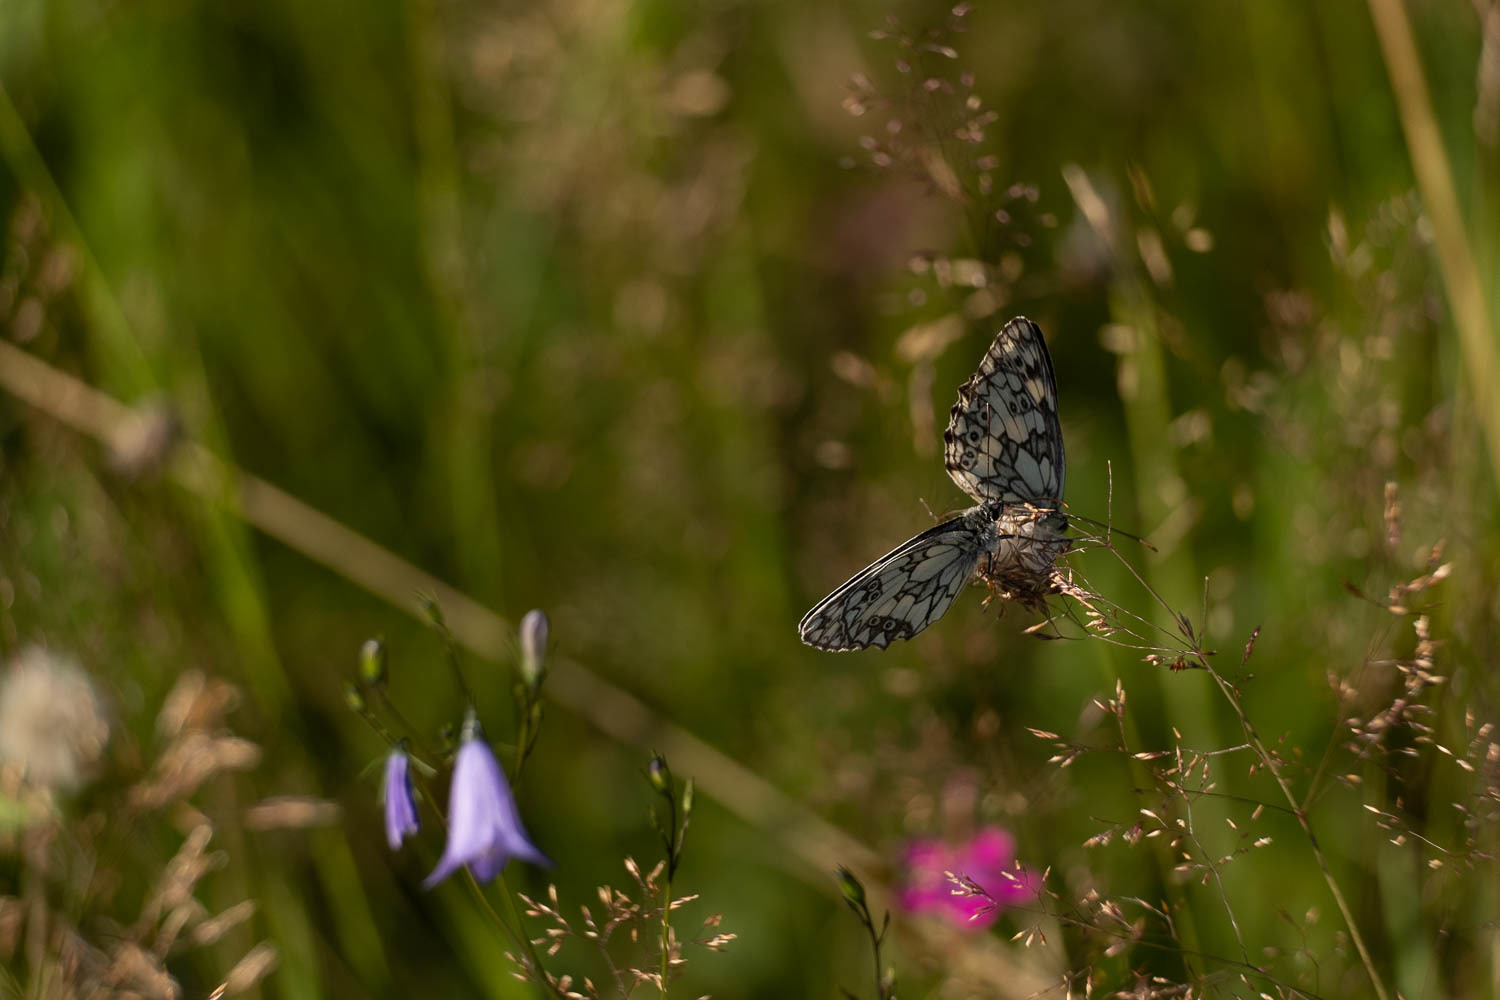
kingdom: Animalia
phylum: Arthropoda
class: Insecta
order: Lepidoptera
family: Nymphalidae
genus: Melanargia
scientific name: Melanargia galathea
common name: Marbled white
